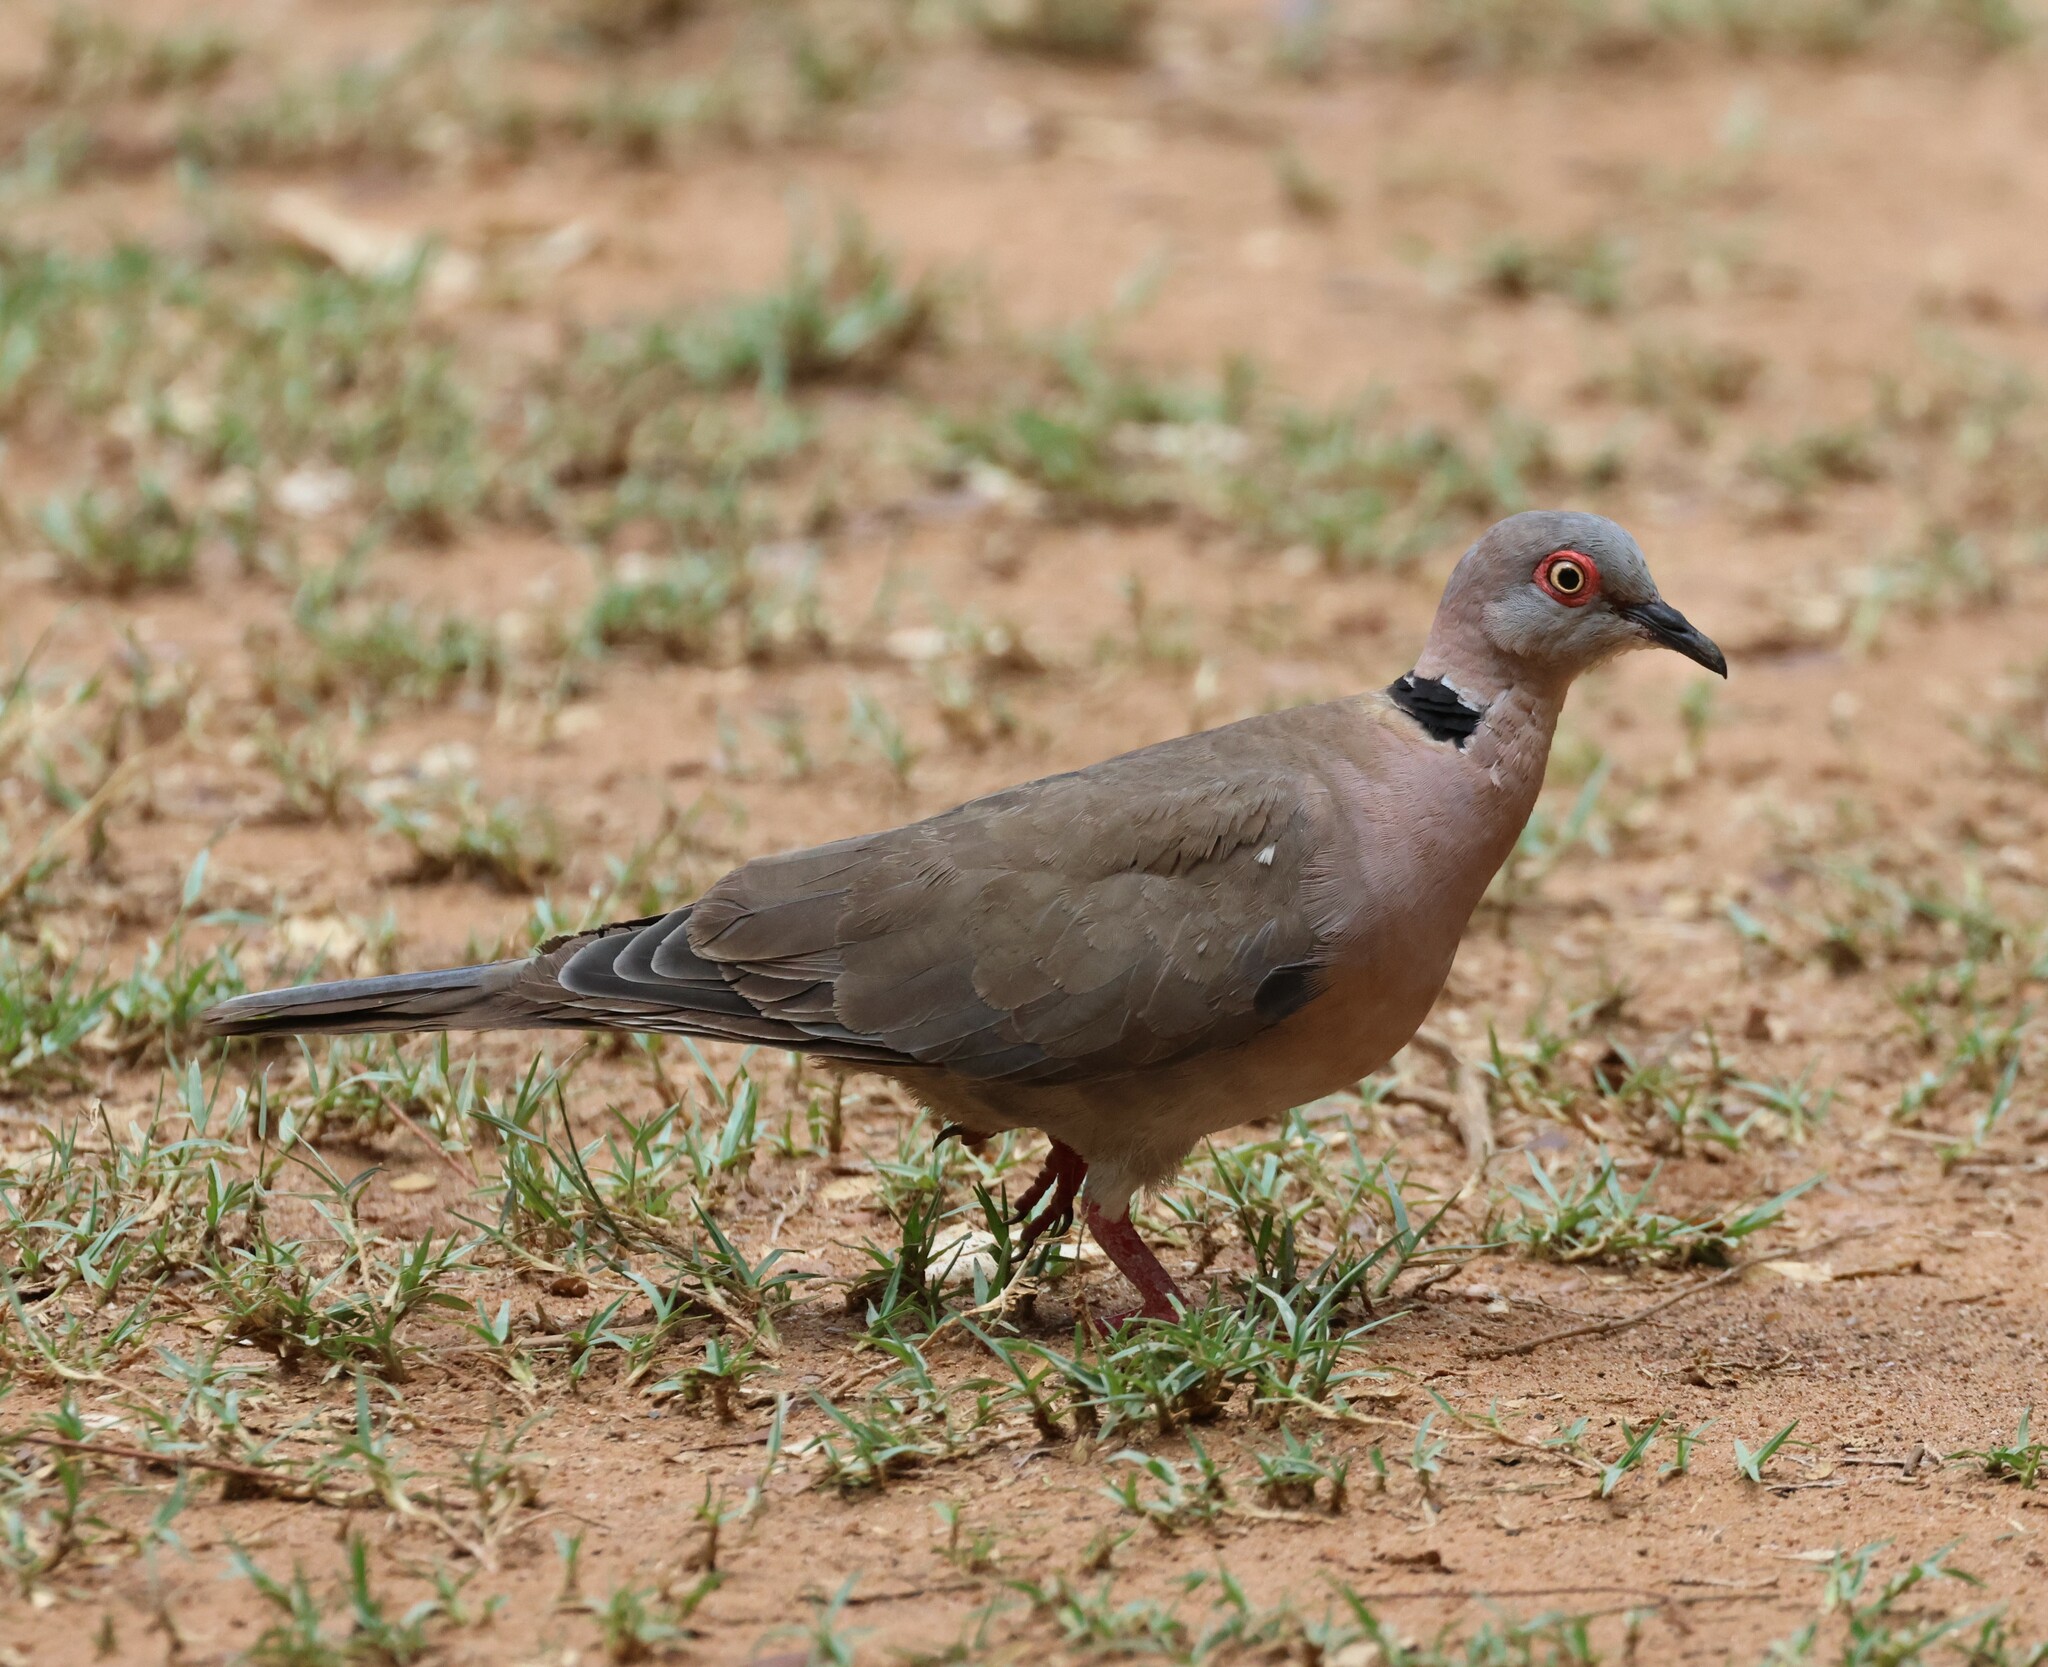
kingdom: Animalia
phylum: Chordata
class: Aves
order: Columbiformes
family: Columbidae
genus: Streptopelia
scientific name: Streptopelia decipiens
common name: Mourning collared dove
